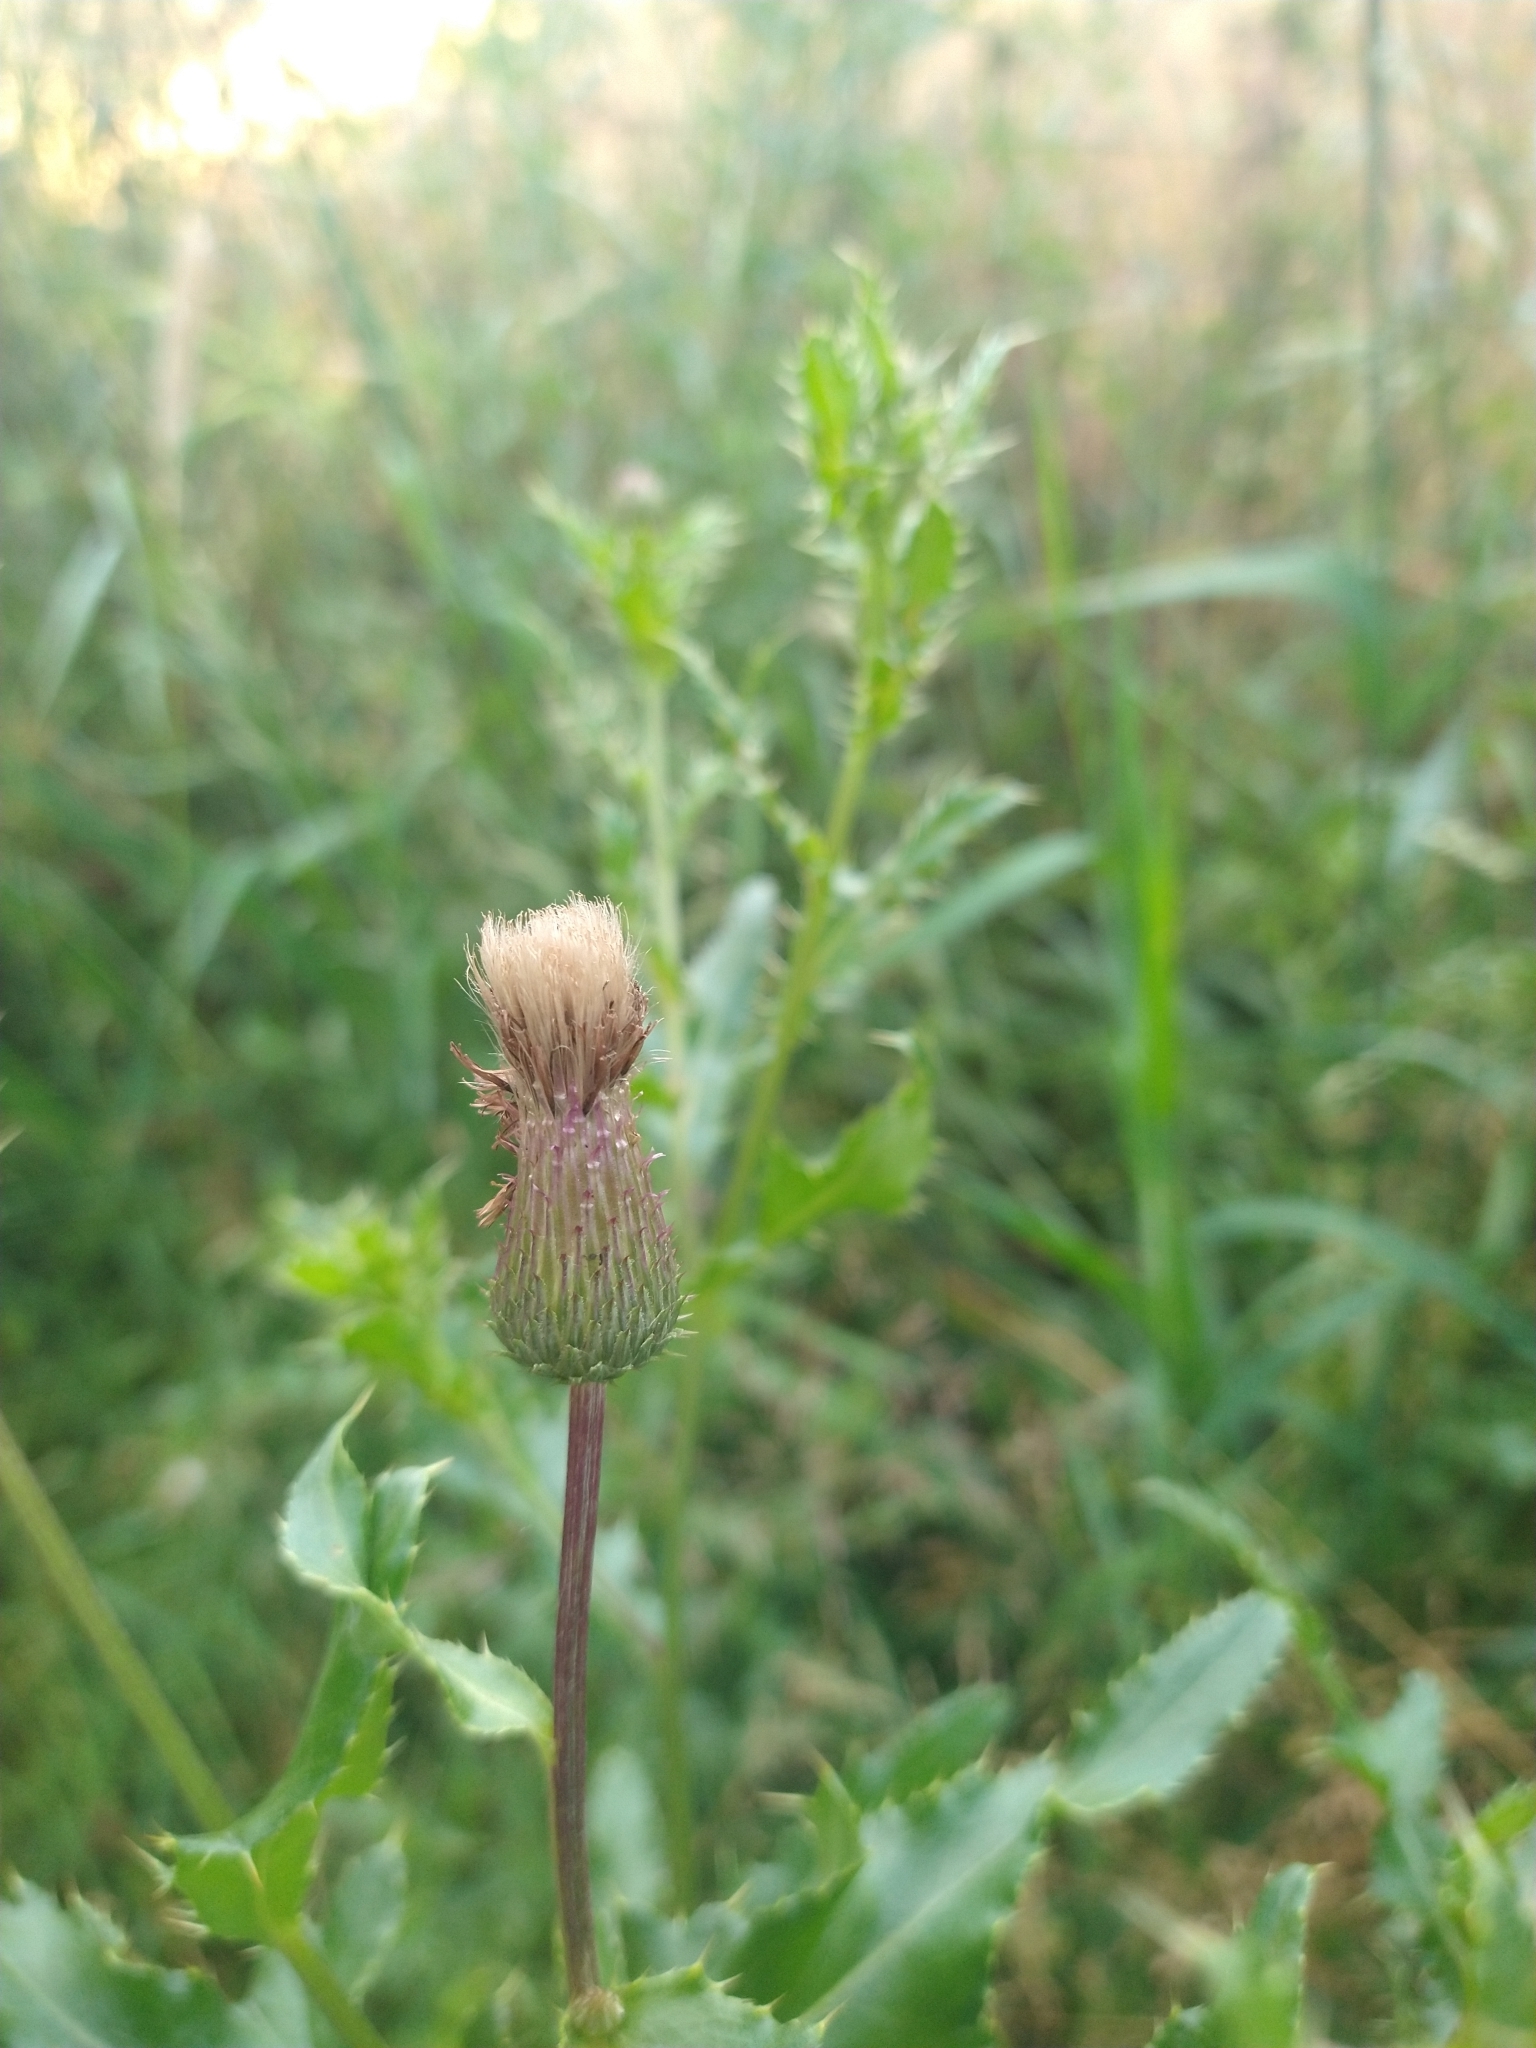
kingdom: Plantae
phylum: Tracheophyta
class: Magnoliopsida
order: Asterales
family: Asteraceae
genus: Cirsium
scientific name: Cirsium arvense
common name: Creeping thistle
